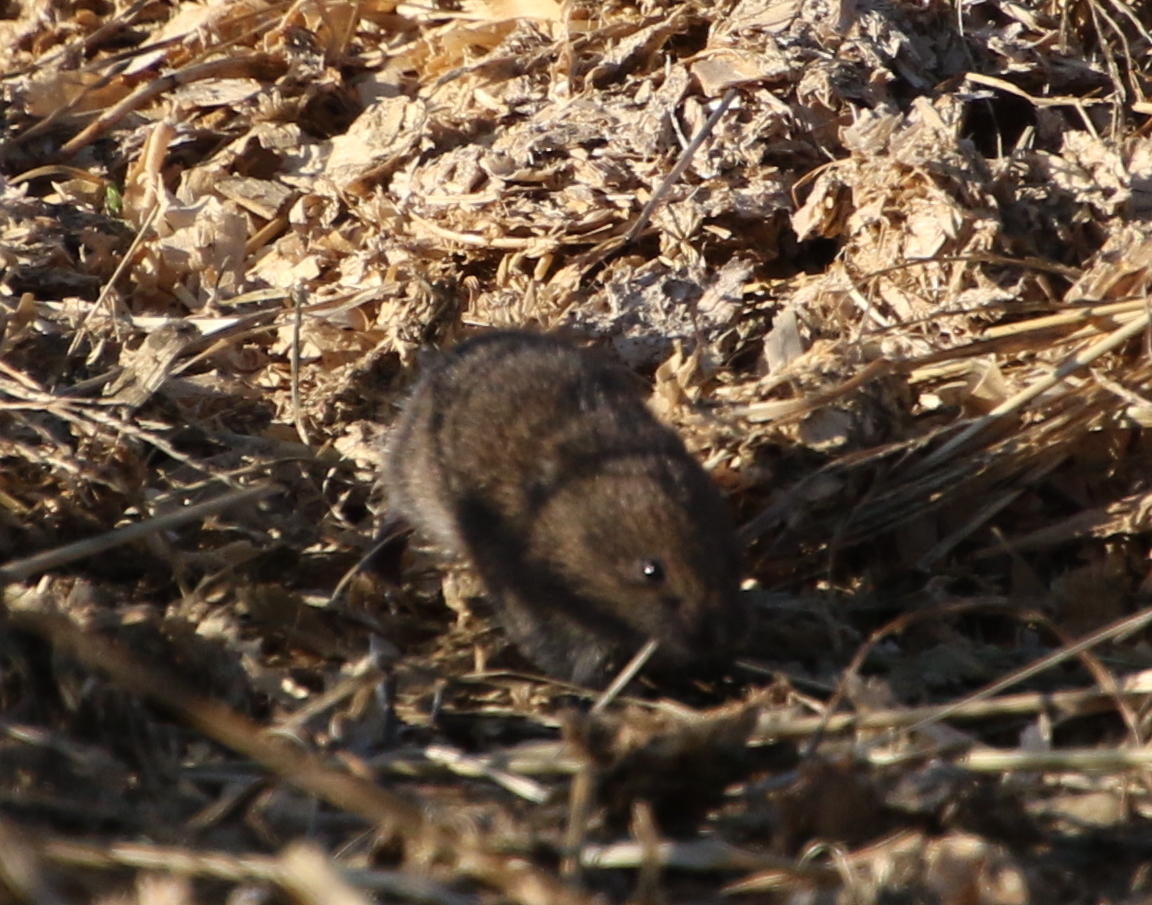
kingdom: Animalia
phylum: Chordata
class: Mammalia
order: Rodentia
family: Cricetidae
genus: Microtus
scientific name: Microtus pennsylvanicus
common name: Meadow vole
